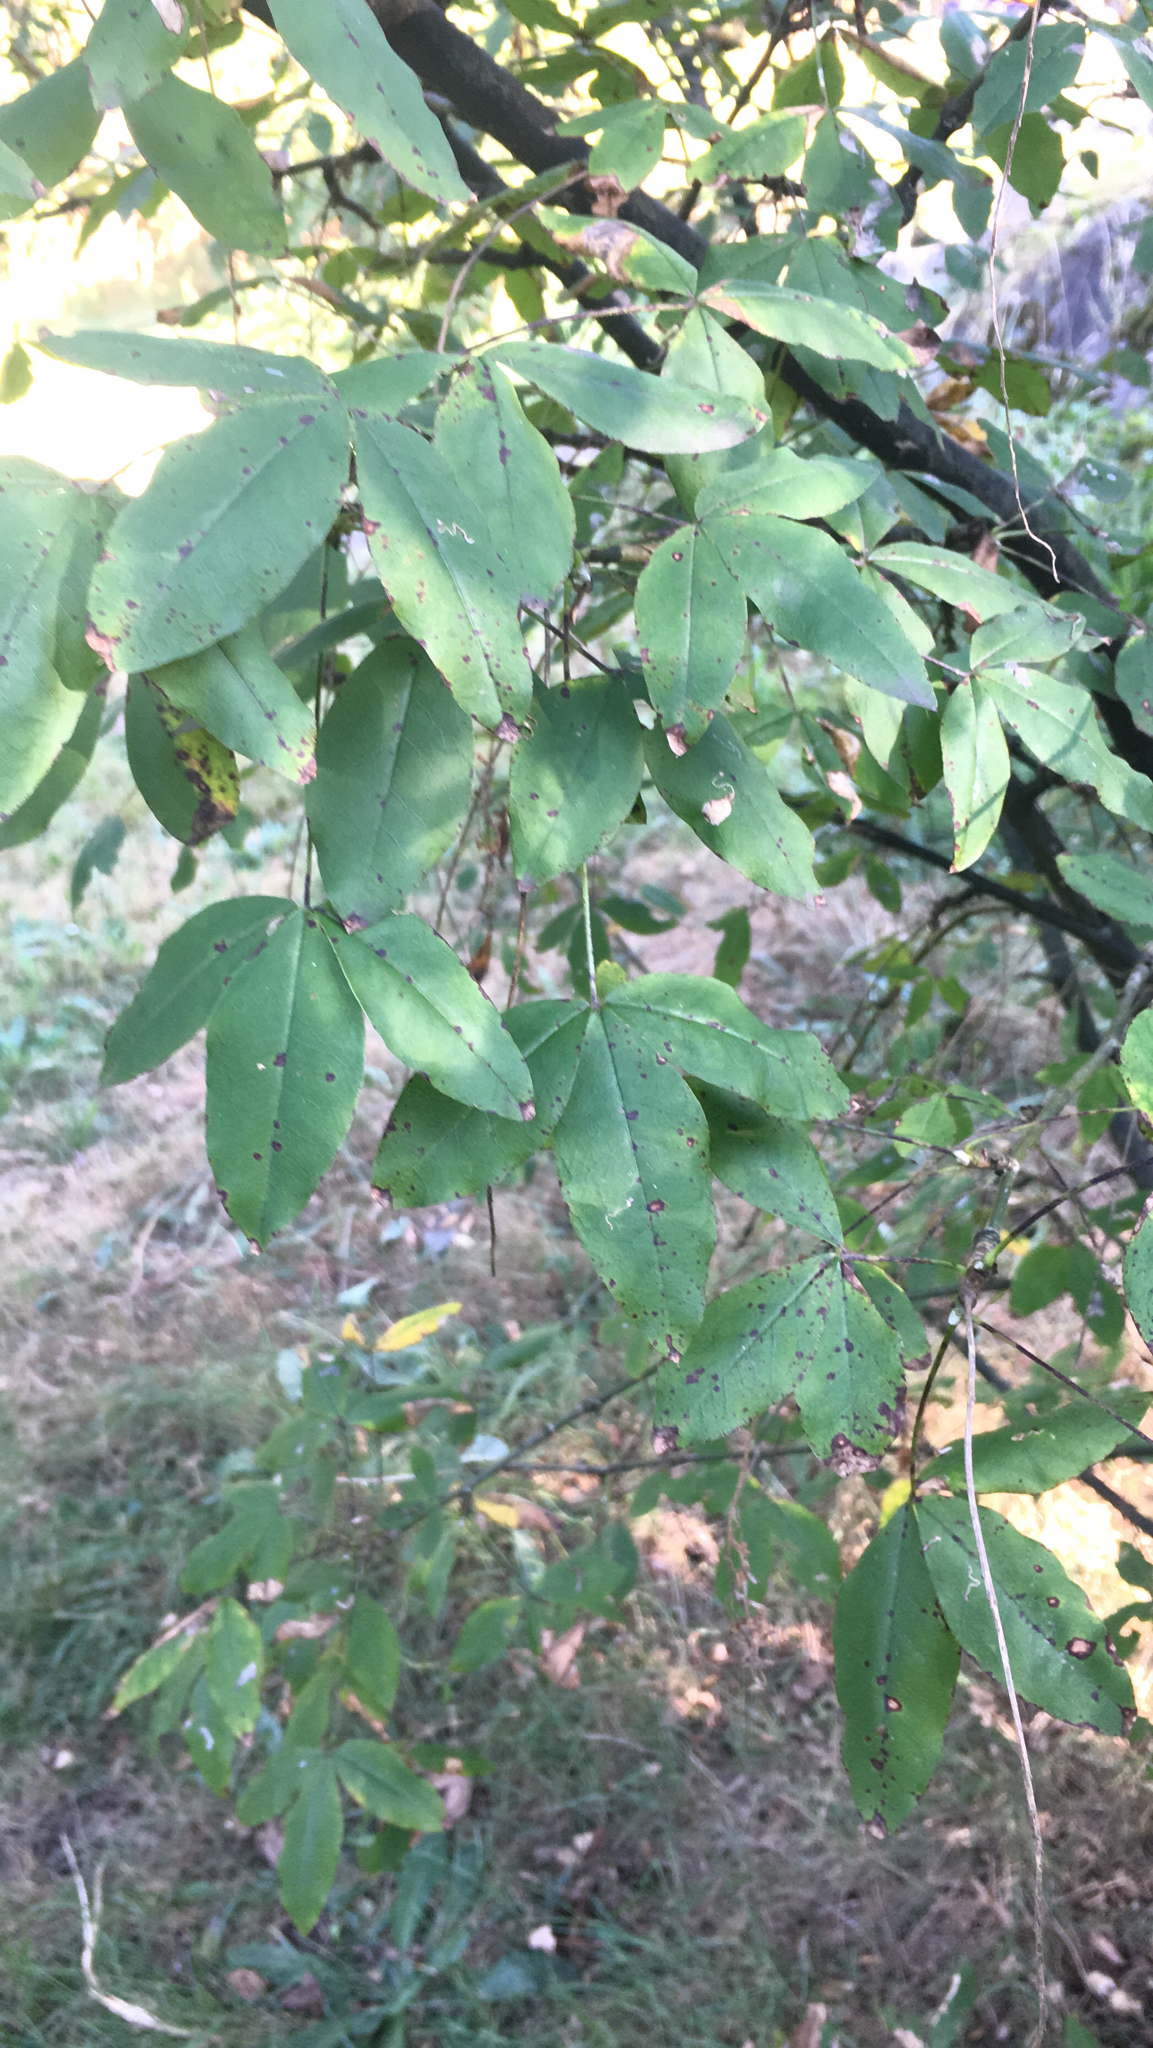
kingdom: Plantae
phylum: Tracheophyta
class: Magnoliopsida
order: Fabales
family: Fabaceae
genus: Laburnum
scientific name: Laburnum anagyroides
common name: Laburnum
